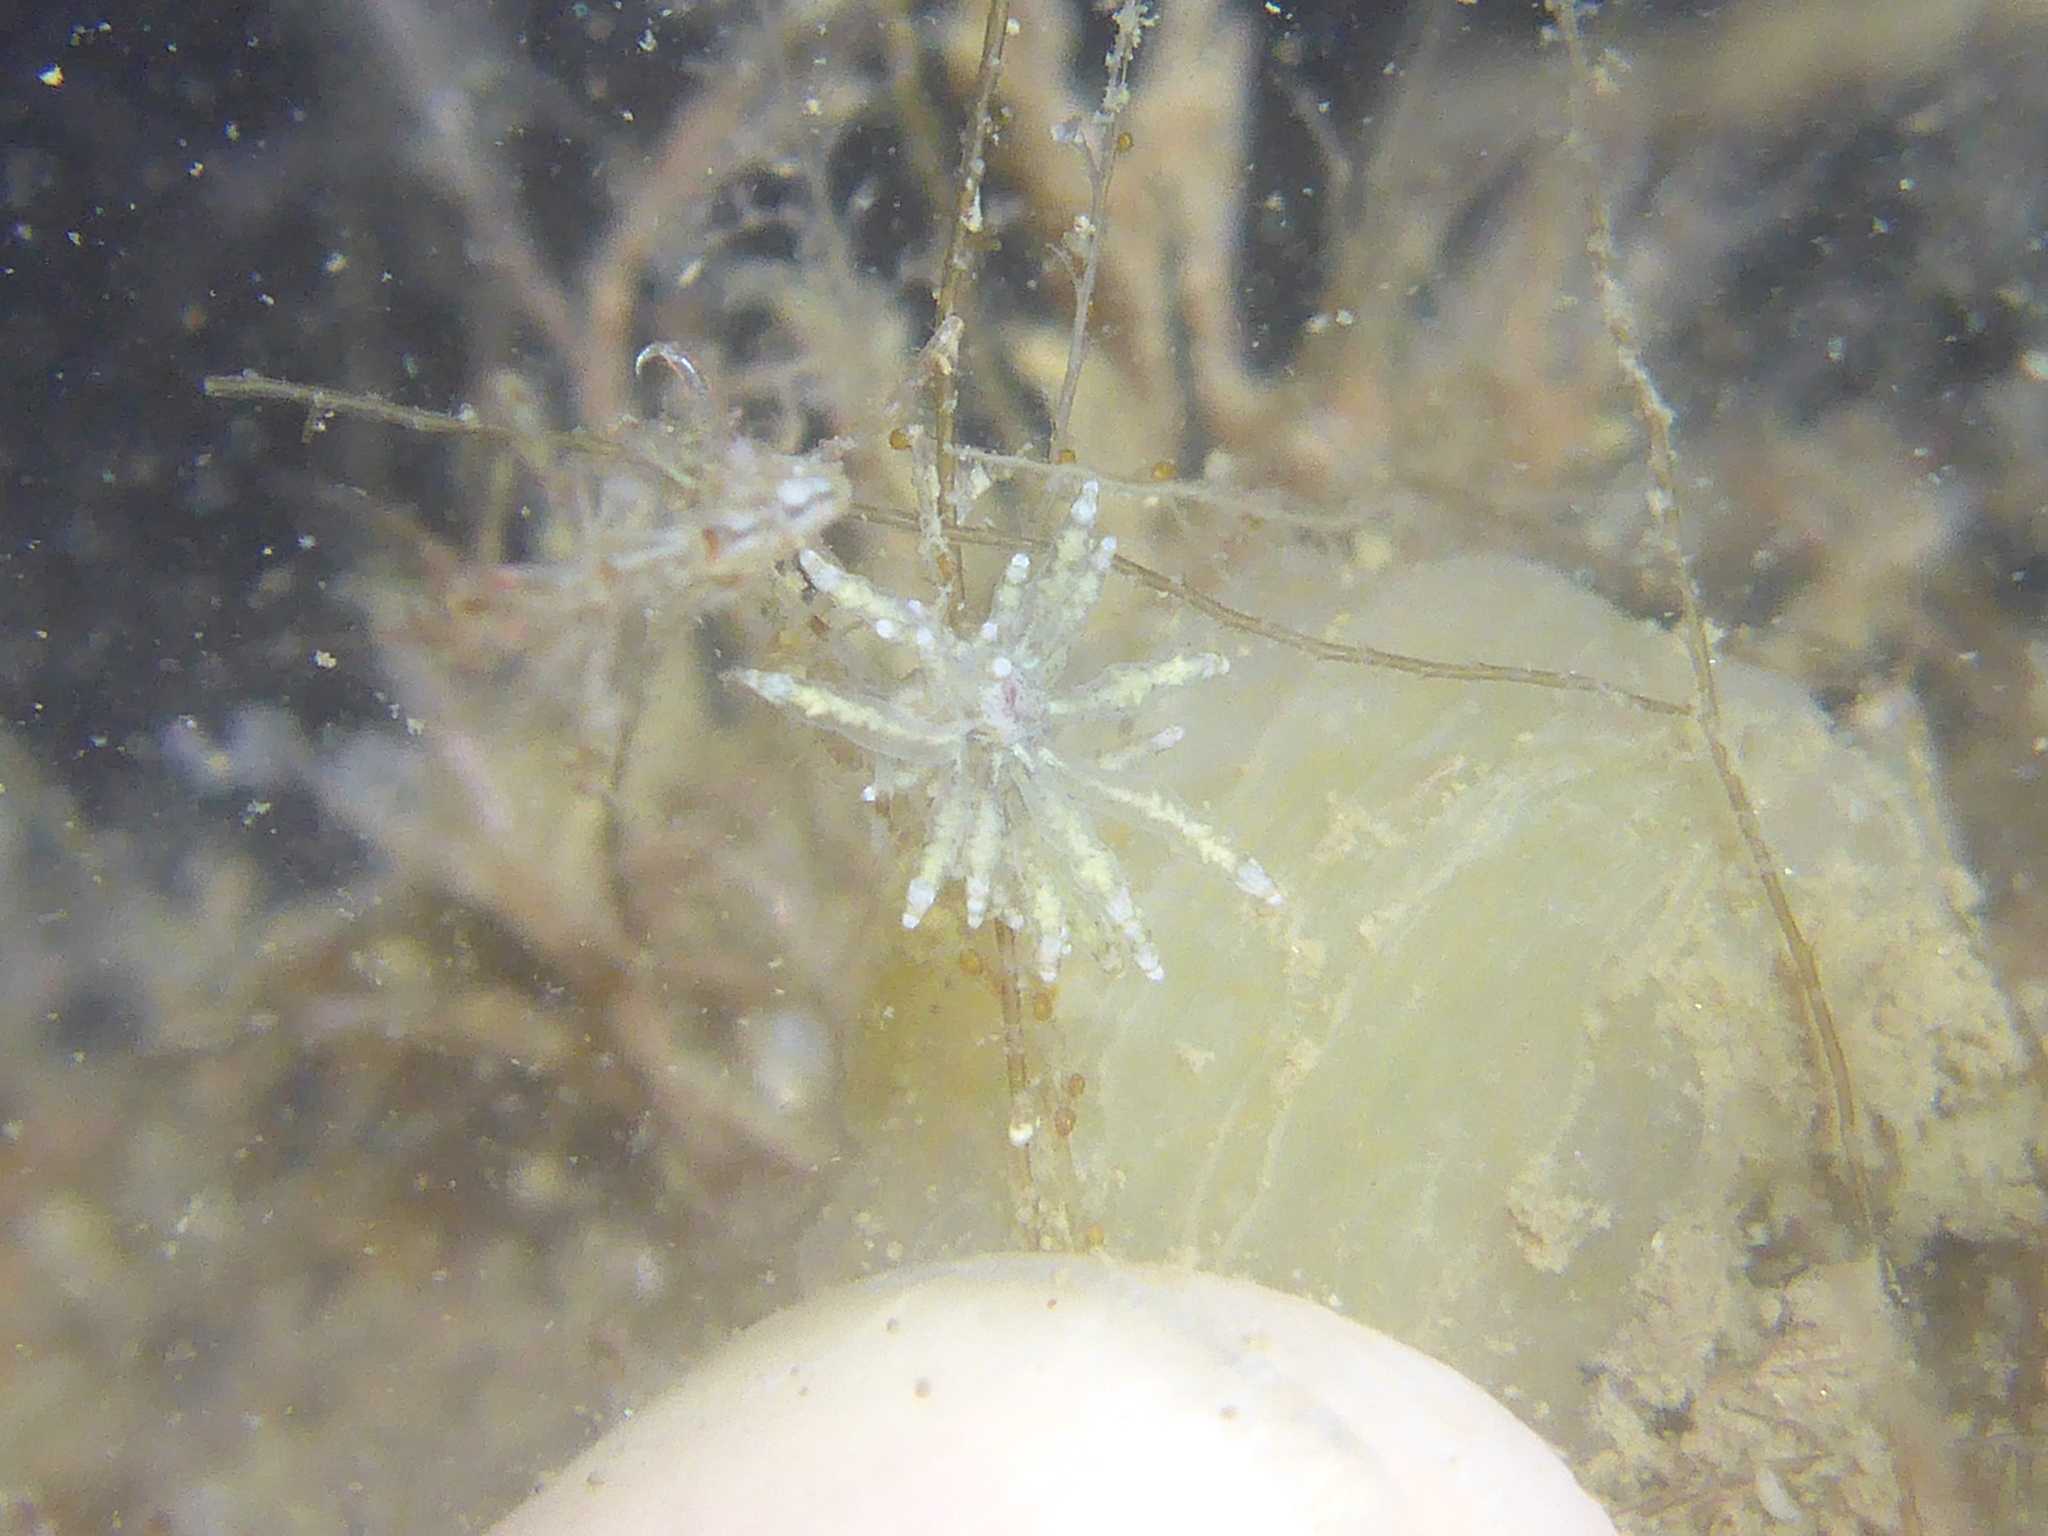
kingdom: Animalia
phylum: Mollusca
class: Gastropoda
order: Nudibranchia
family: Eubranchidae
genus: Eubranchus
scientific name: Eubranchus rustyus
